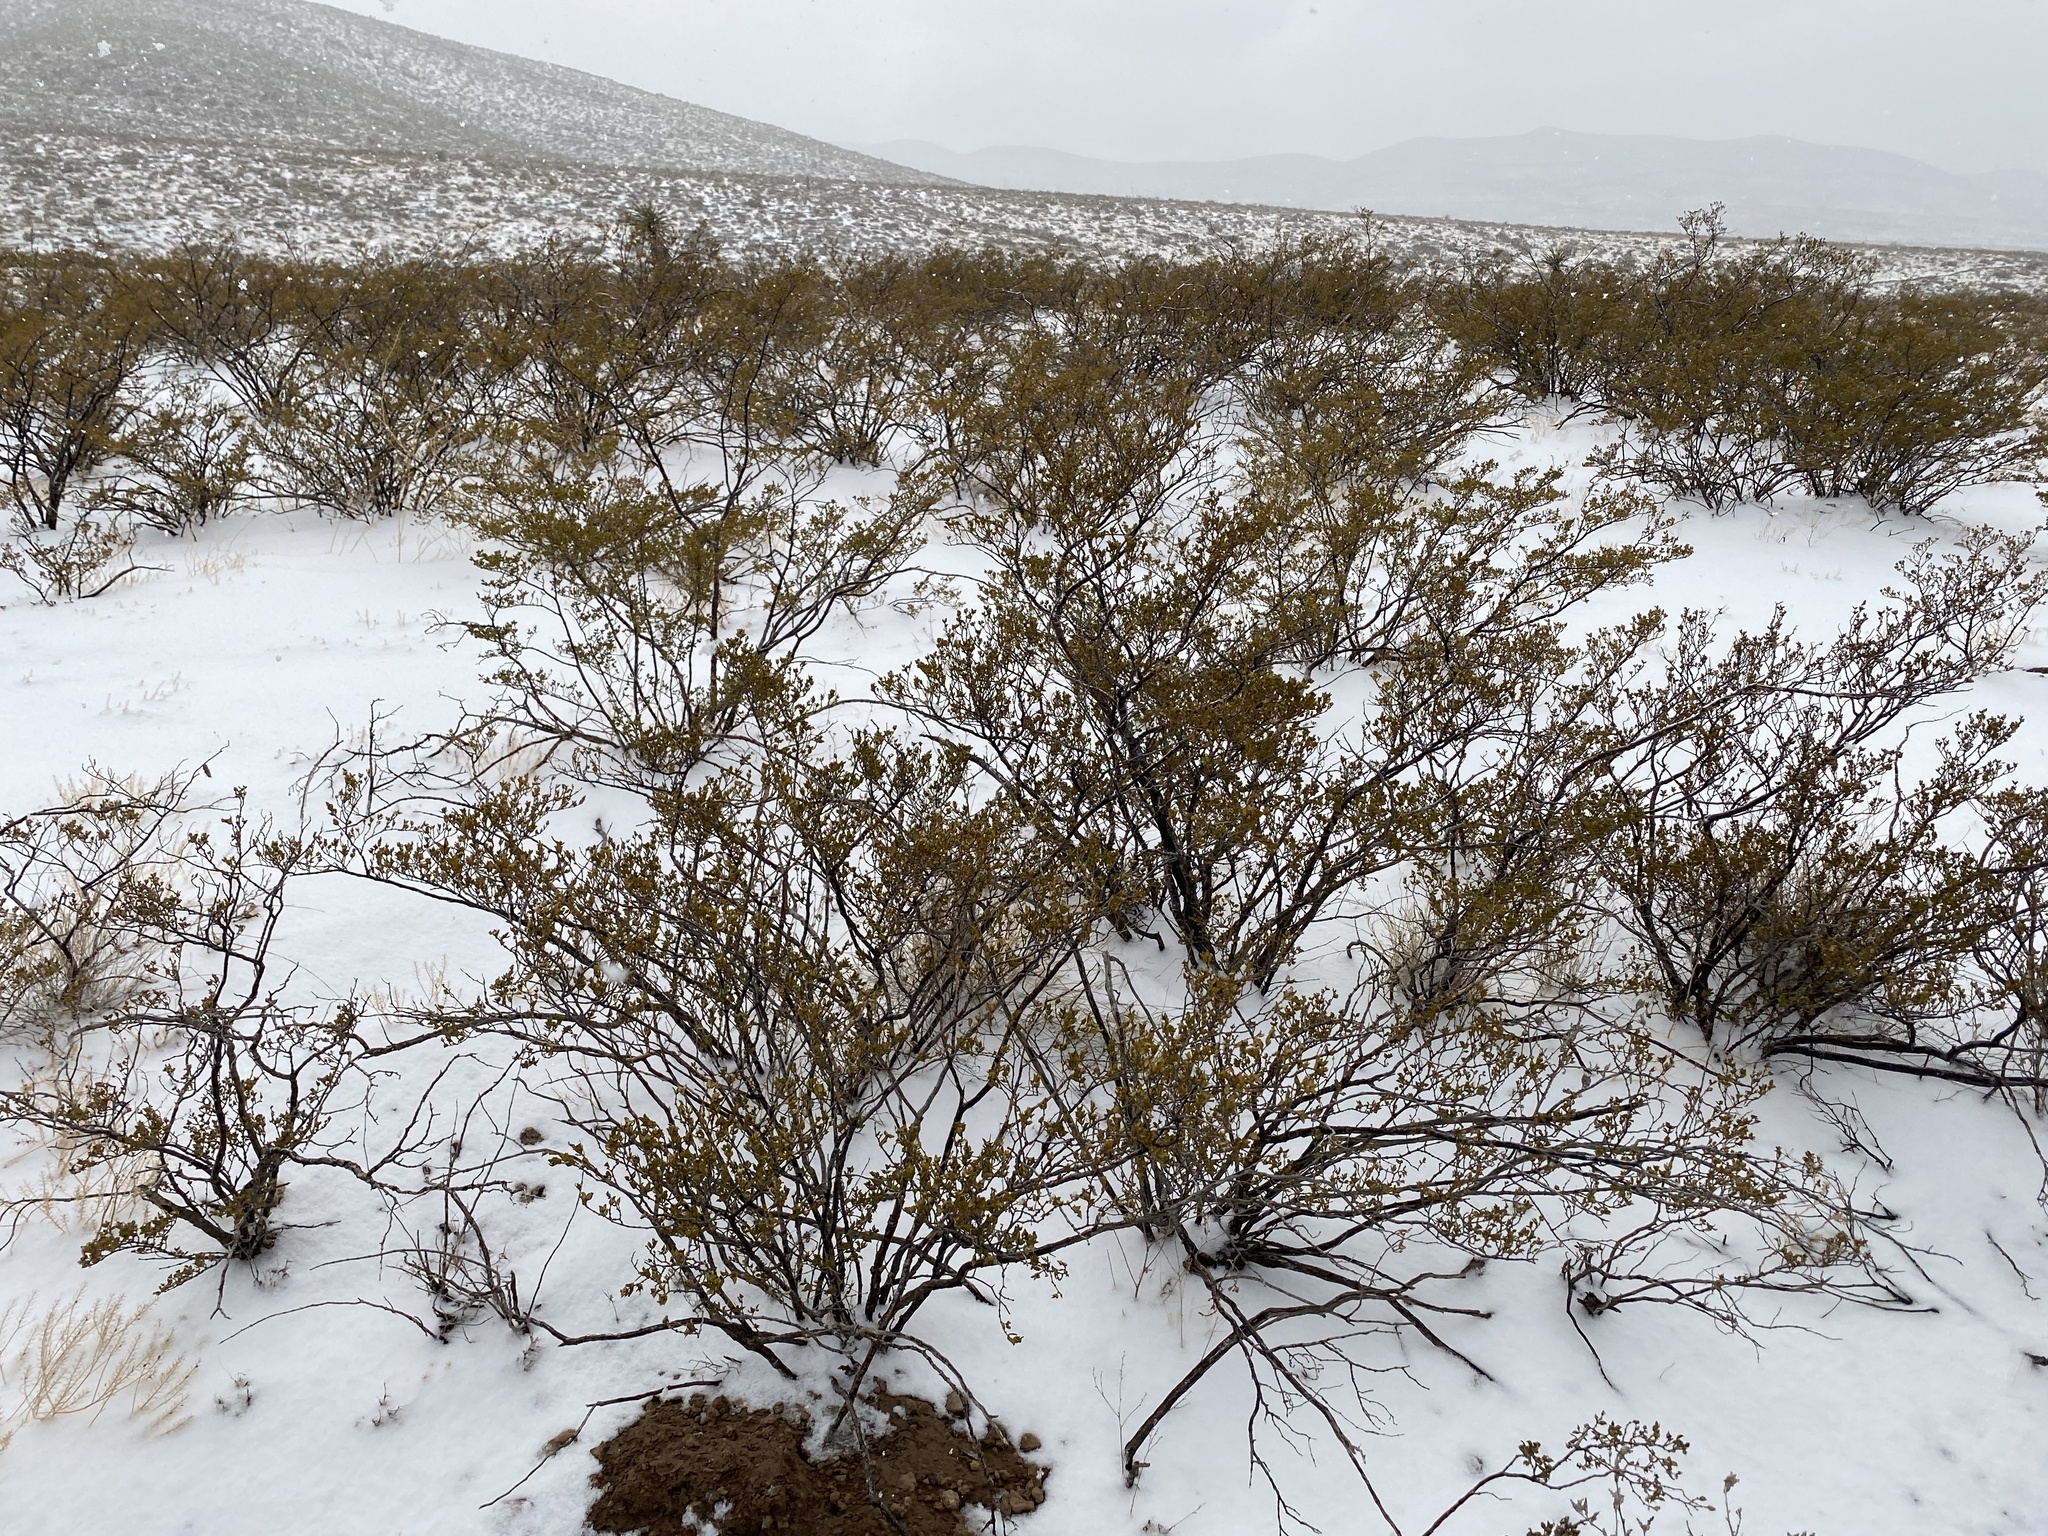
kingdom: Plantae
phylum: Tracheophyta
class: Magnoliopsida
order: Zygophyllales
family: Zygophyllaceae
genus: Larrea
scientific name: Larrea tridentata
